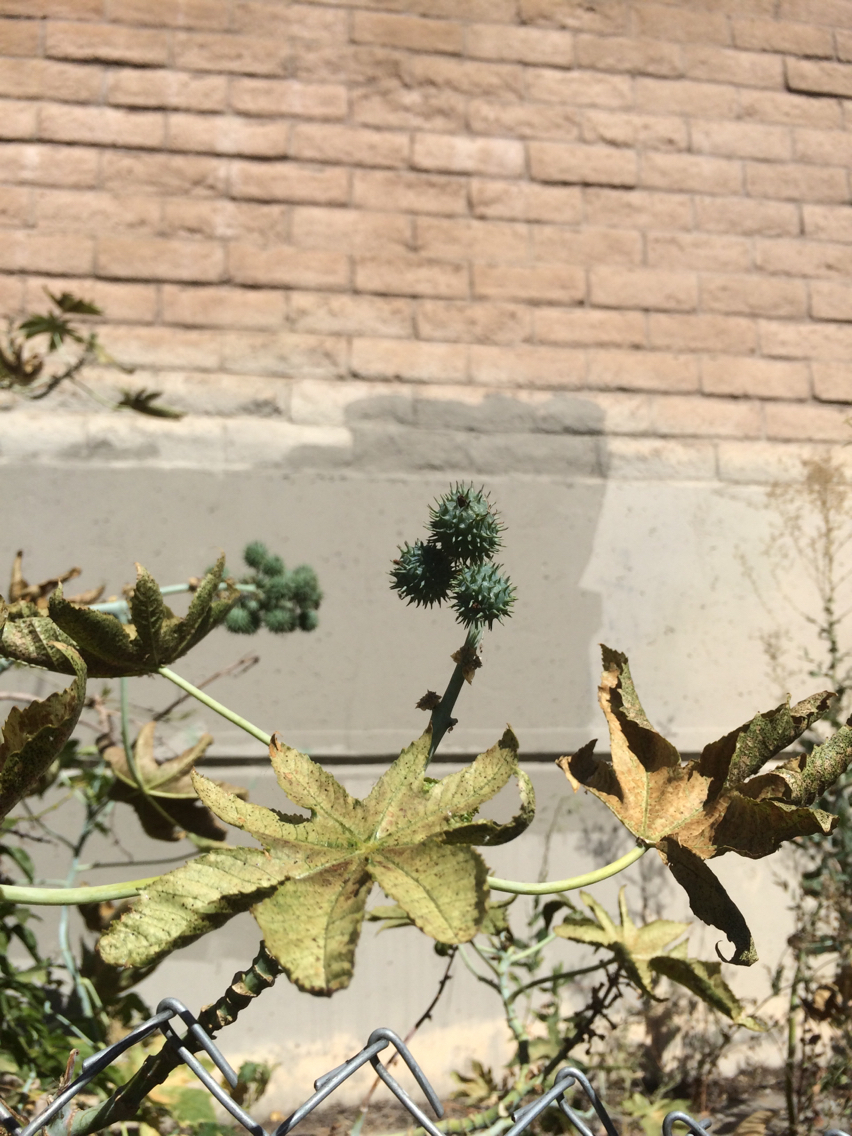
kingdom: Plantae
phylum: Tracheophyta
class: Magnoliopsida
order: Malpighiales
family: Euphorbiaceae
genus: Ricinus
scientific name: Ricinus communis
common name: Castor-oil-plant
